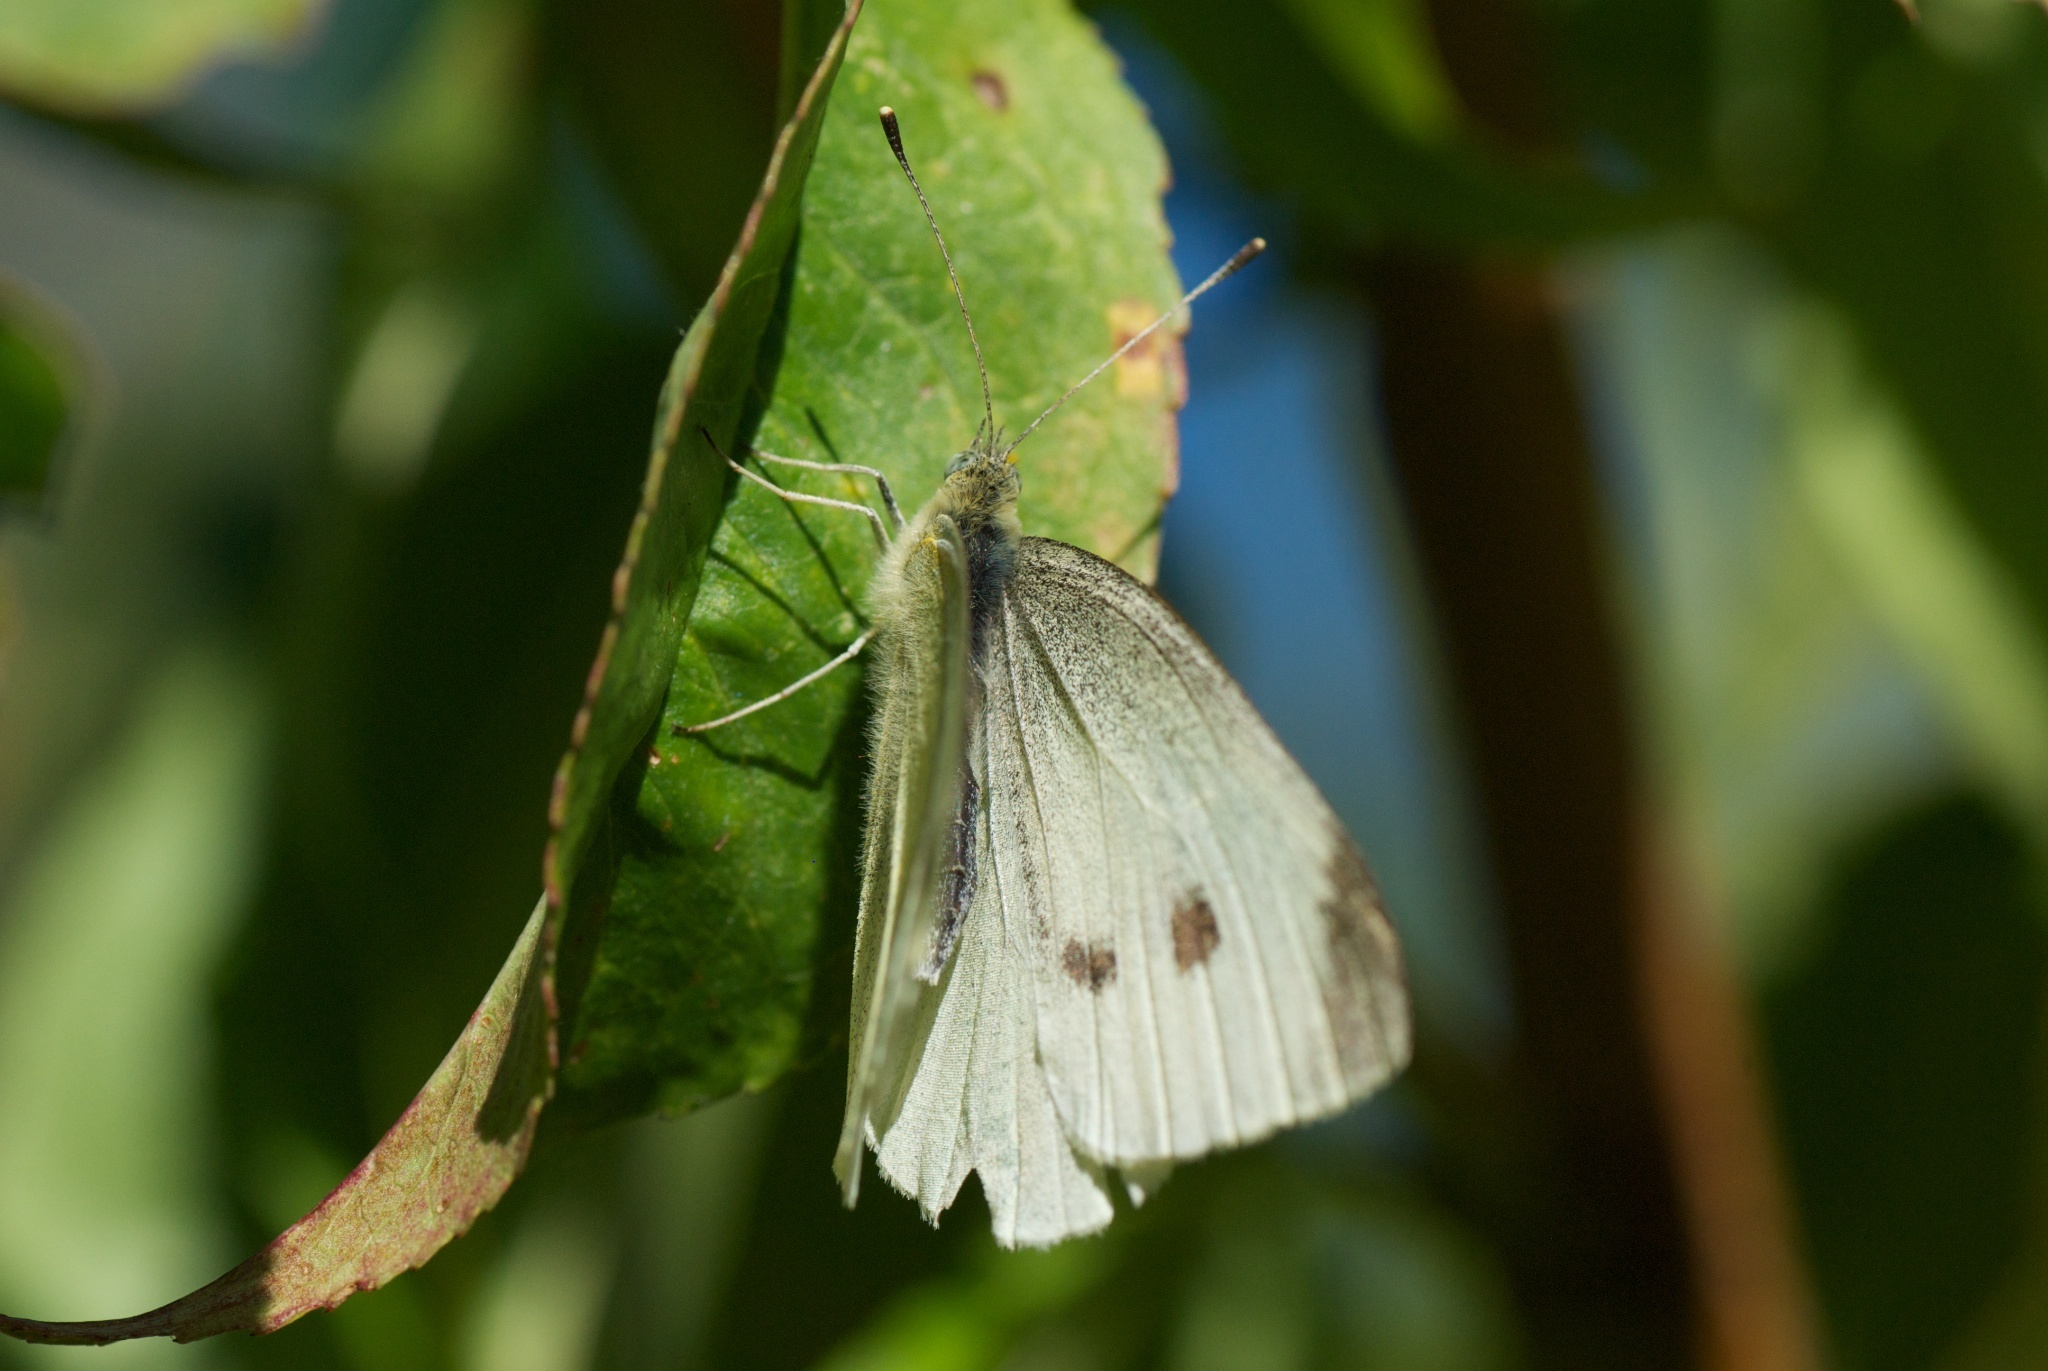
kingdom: Animalia
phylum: Arthropoda
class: Insecta
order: Lepidoptera
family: Pieridae
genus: Pieris
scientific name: Pieris rapae
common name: Small white
